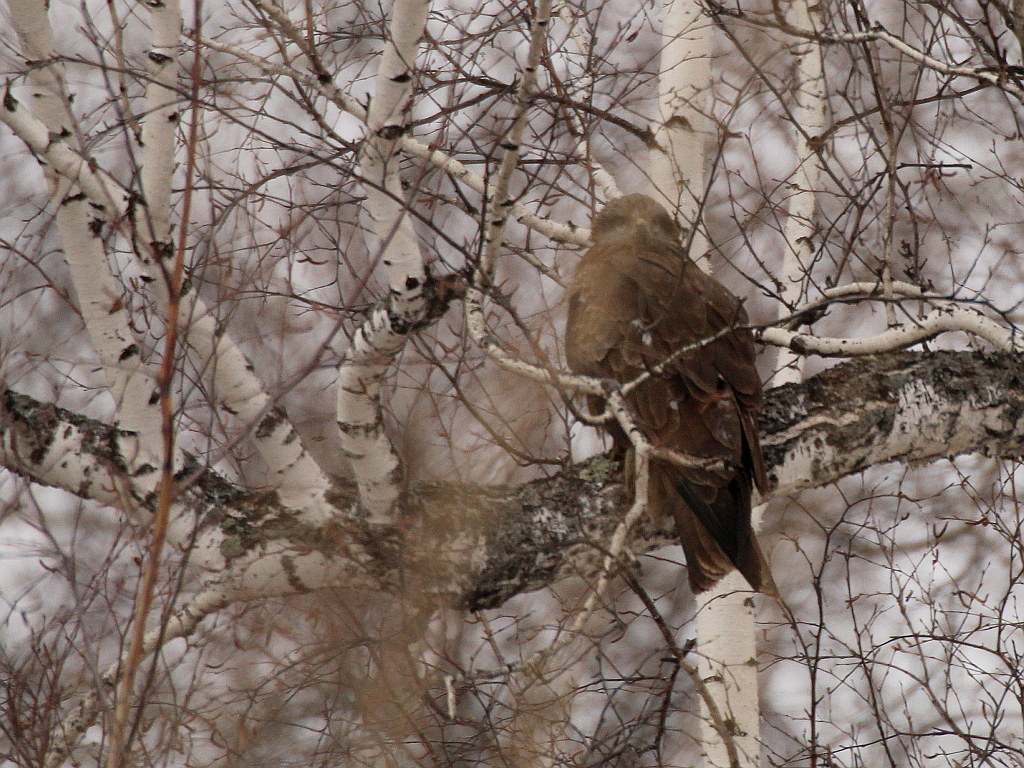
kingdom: Animalia
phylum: Chordata
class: Aves
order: Accipitriformes
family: Accipitridae
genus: Milvus
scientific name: Milvus migrans
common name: Black kite
